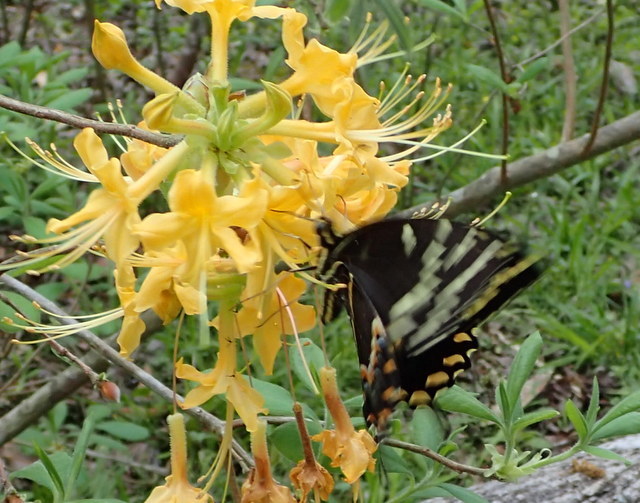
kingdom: Animalia
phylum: Arthropoda
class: Insecta
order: Lepidoptera
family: Papilionidae
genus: Papilio
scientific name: Papilio palamedes
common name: Palamedes swallowtail
